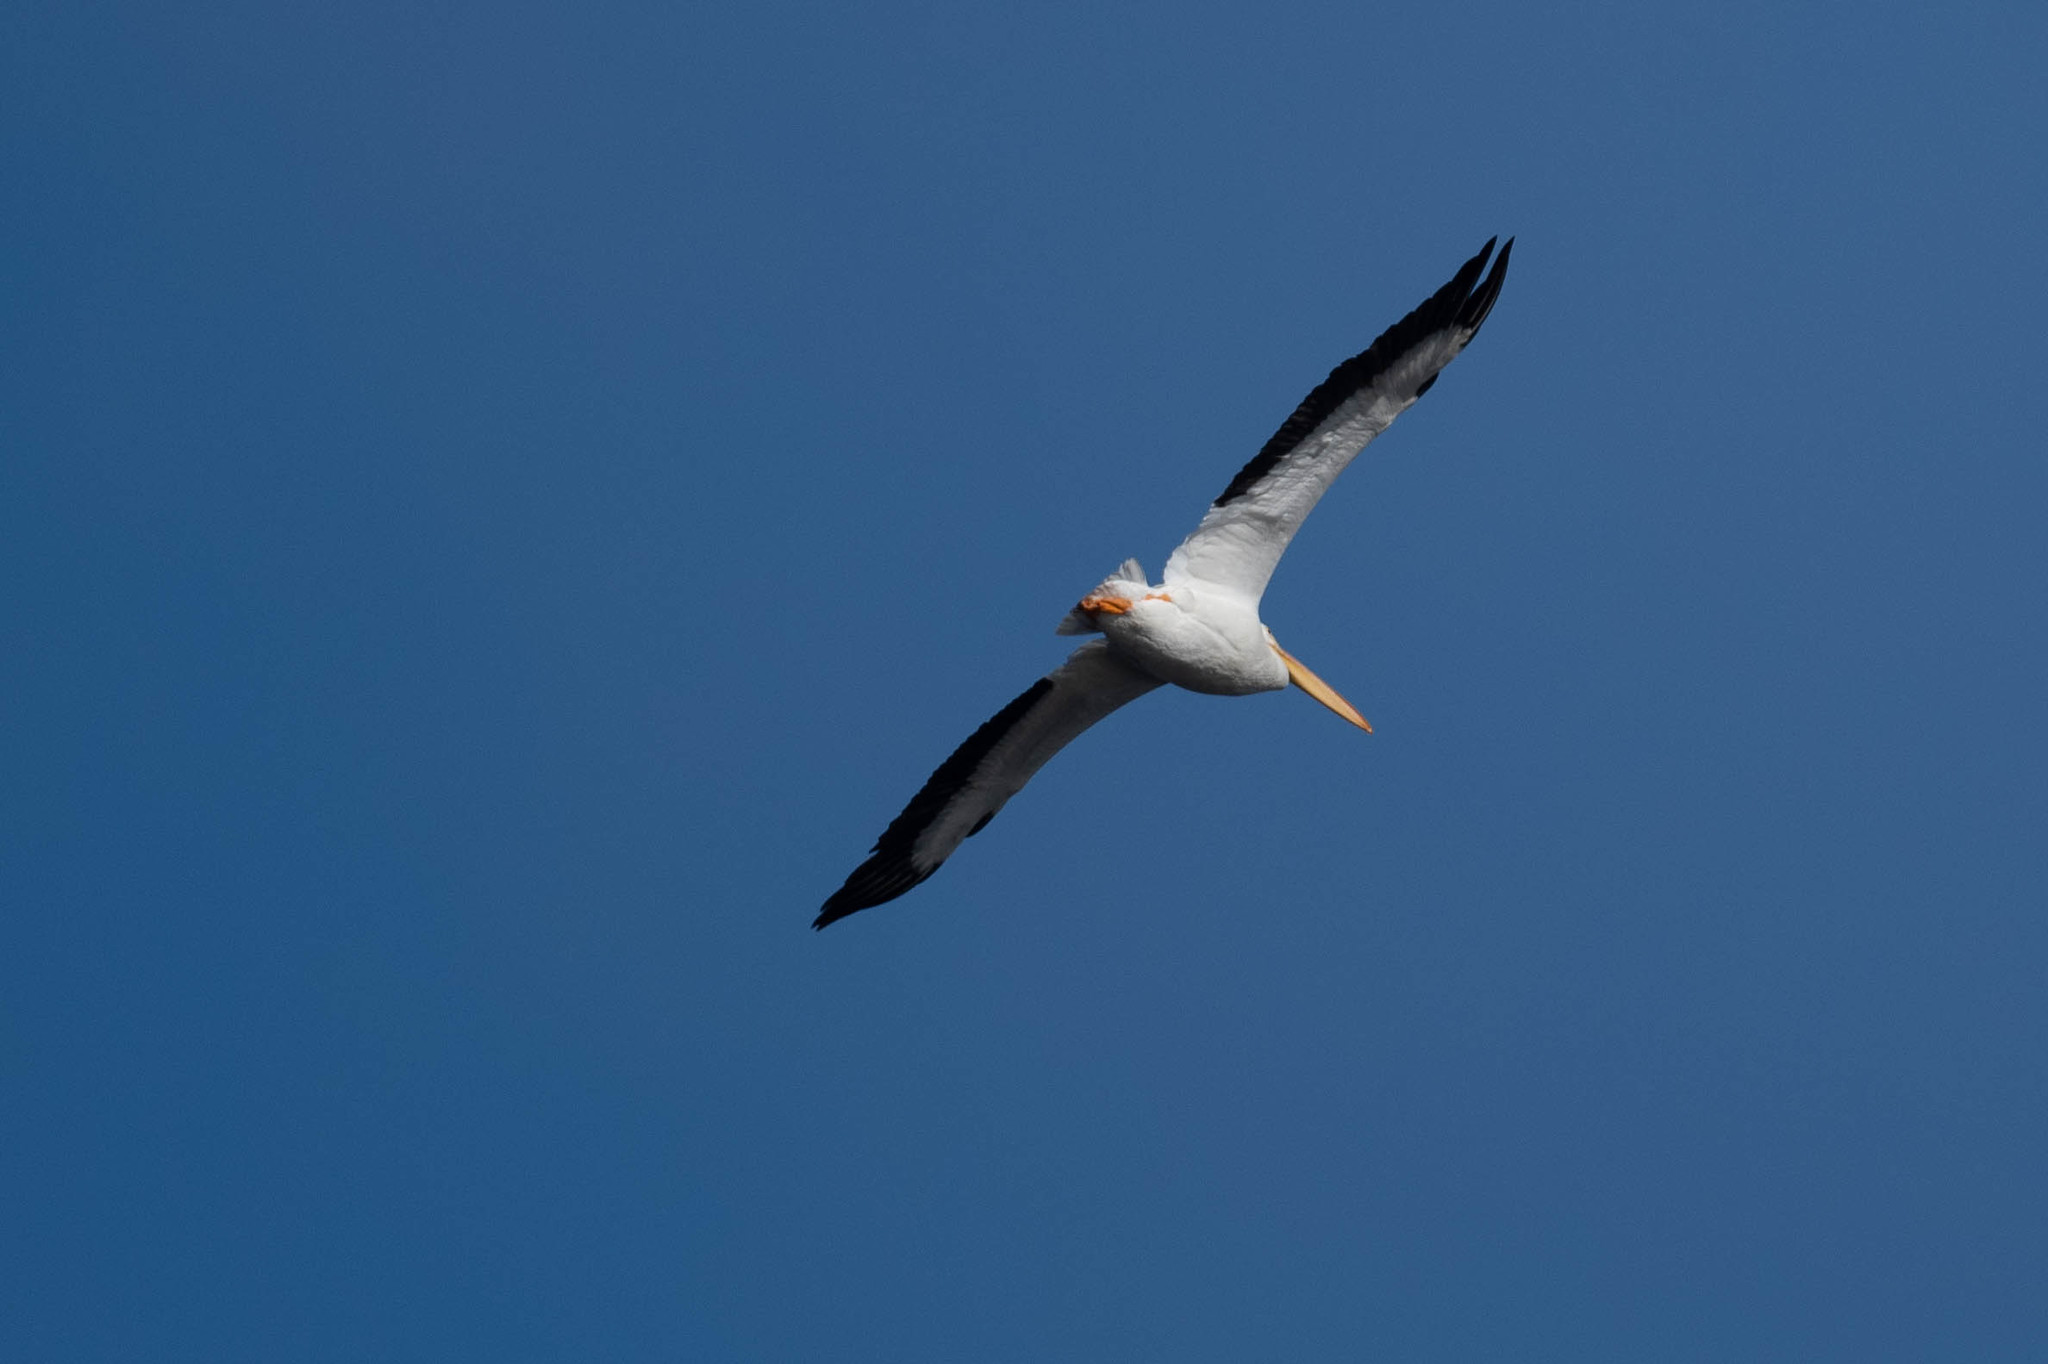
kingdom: Animalia
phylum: Chordata
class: Aves
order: Pelecaniformes
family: Pelecanidae
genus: Pelecanus
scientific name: Pelecanus erythrorhynchos
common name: American white pelican
